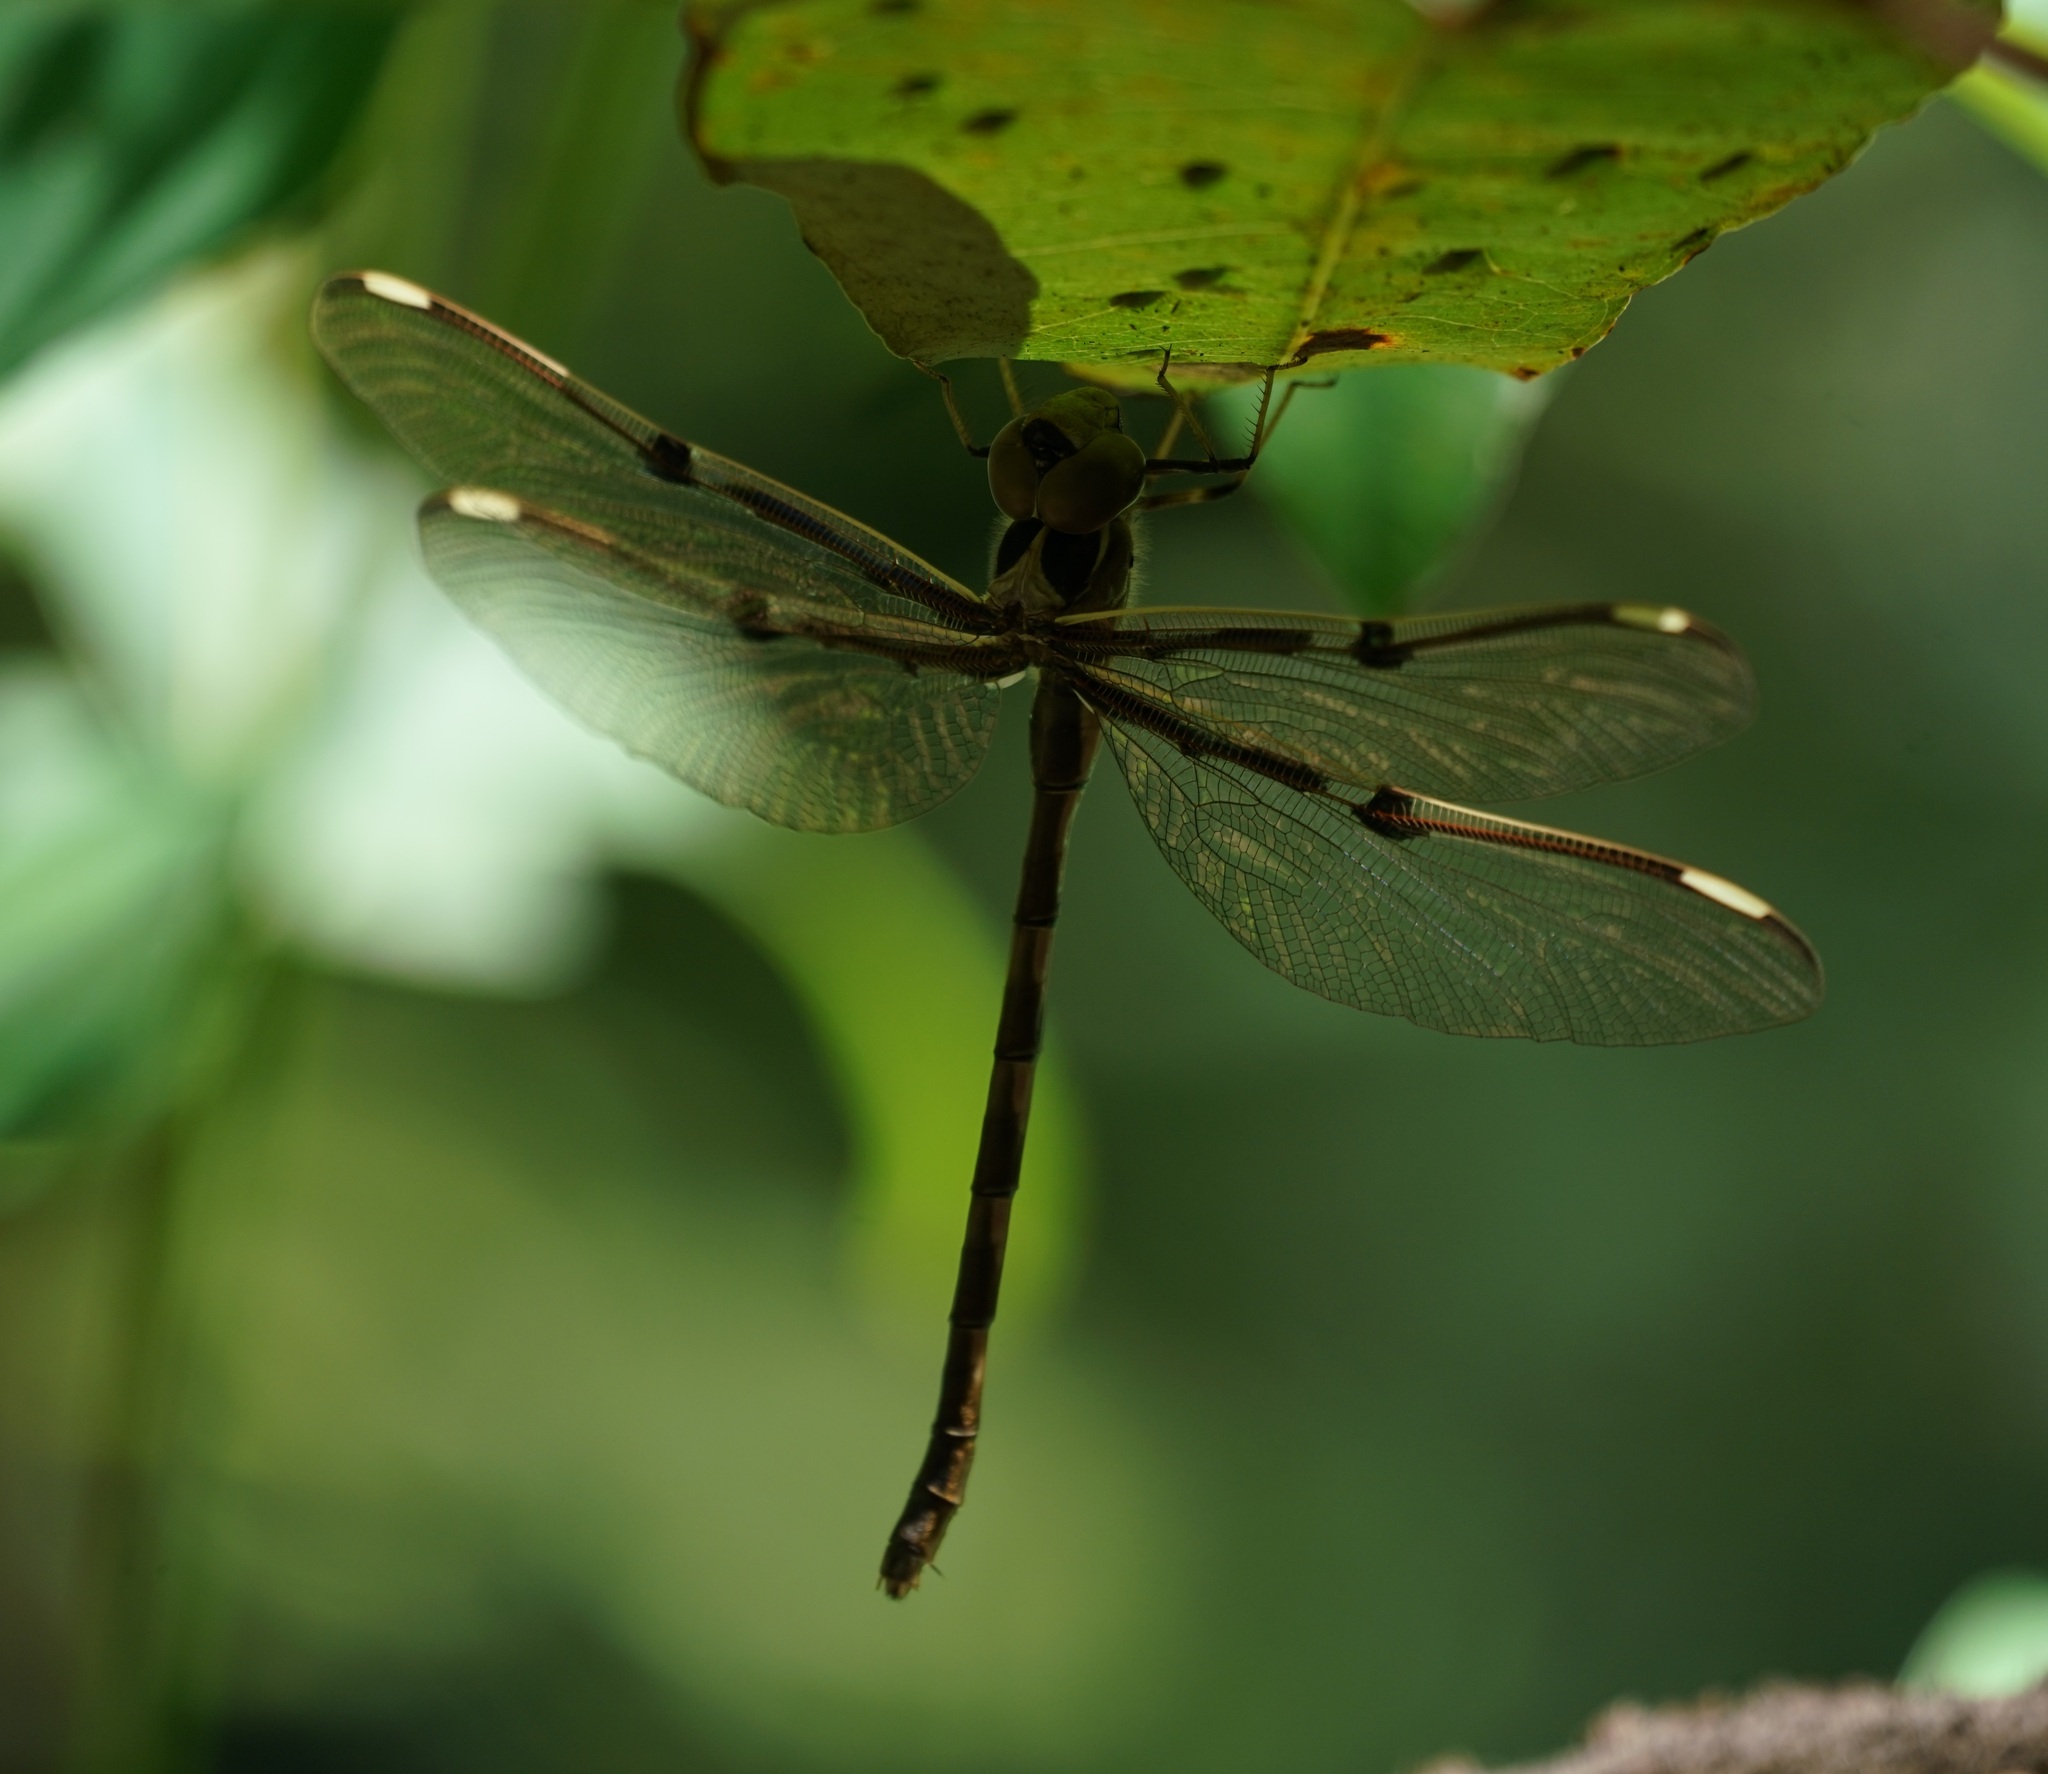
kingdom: Animalia
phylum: Arthropoda
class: Insecta
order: Odonata
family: Aeshnidae
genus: Telephlebia
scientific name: Telephlebia godeffroyi
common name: Eastern evening darner
